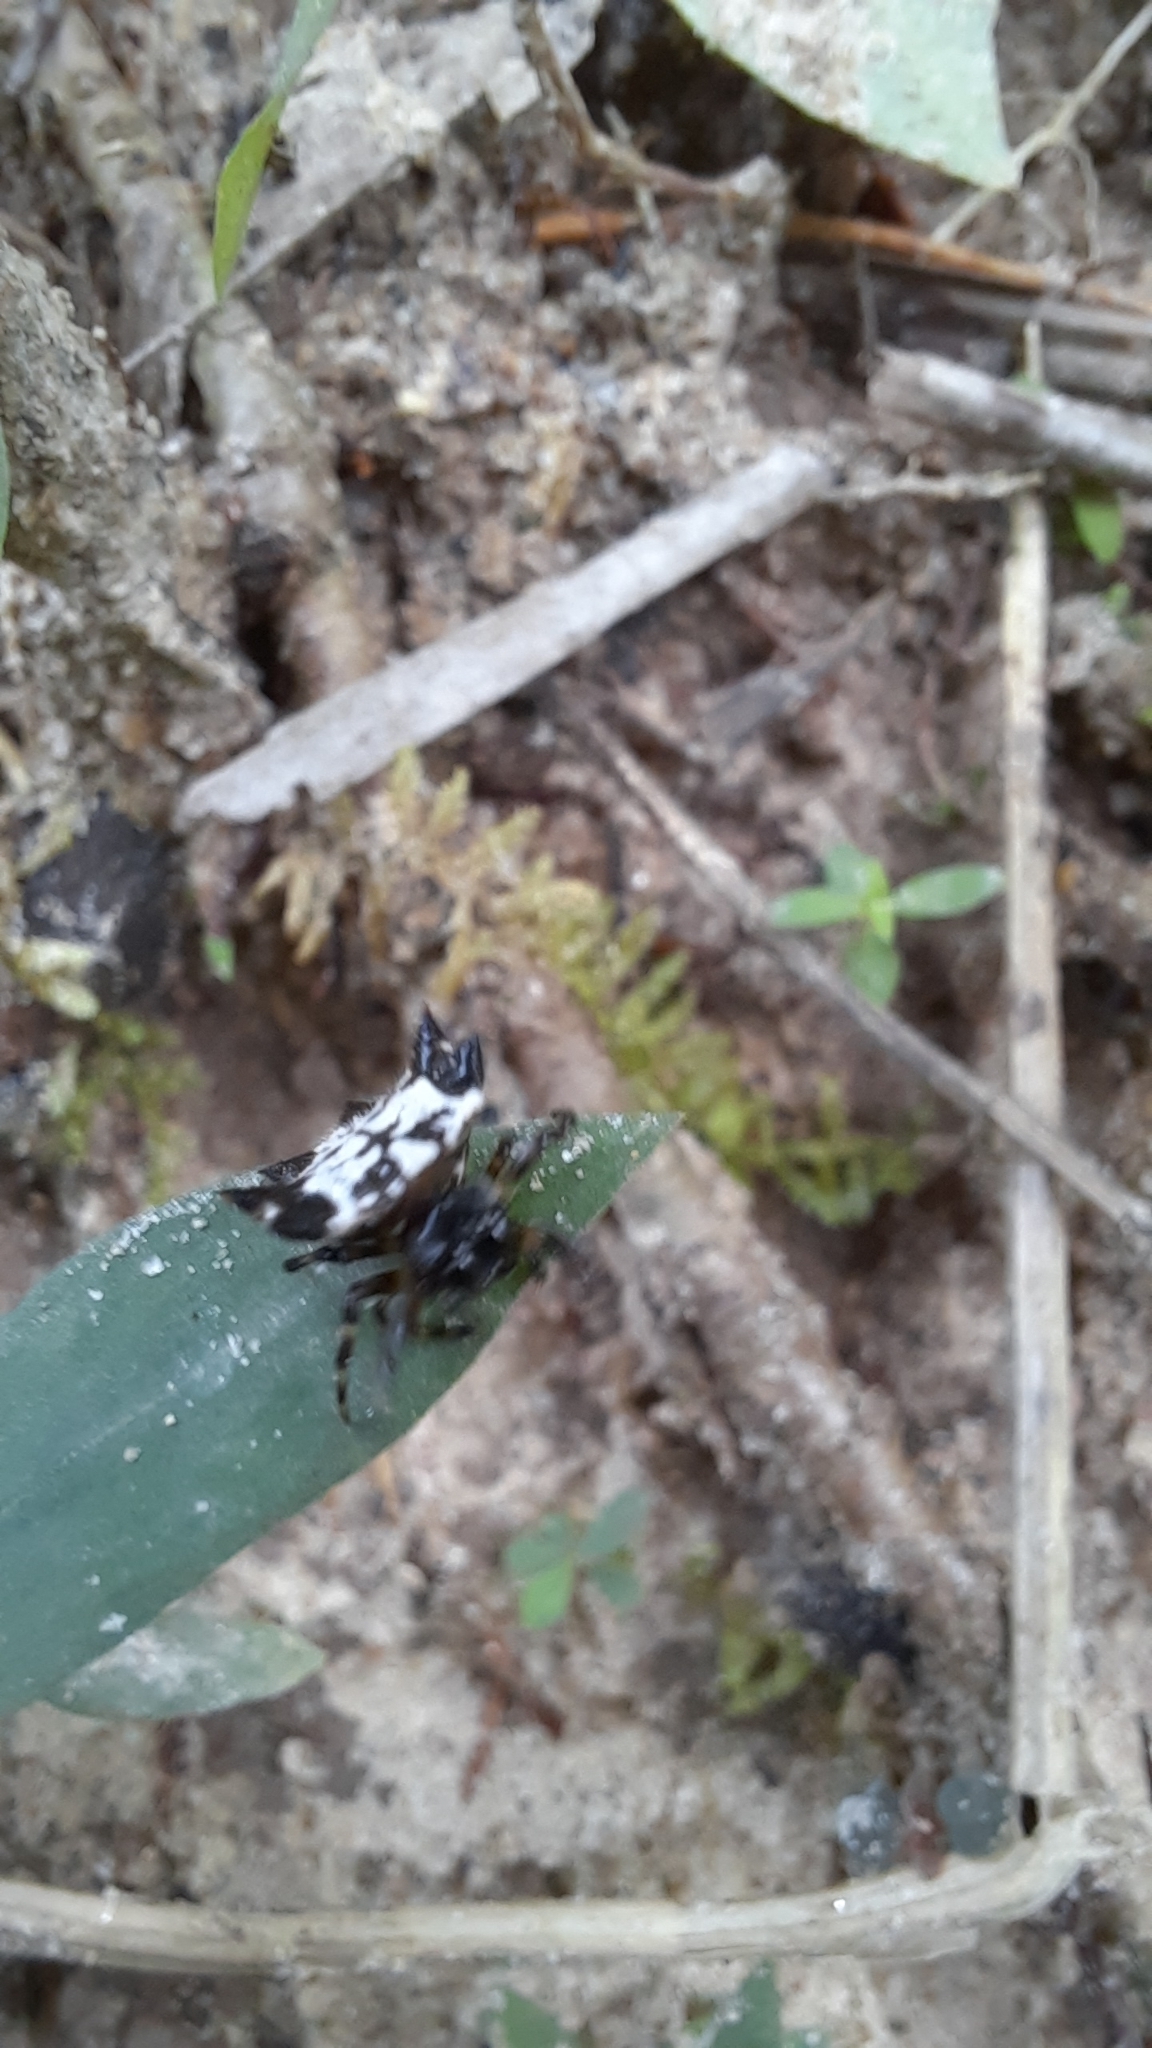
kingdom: Animalia
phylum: Arthropoda
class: Arachnida
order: Araneae
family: Araneidae
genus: Gasteracantha
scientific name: Gasteracantha kuhli
